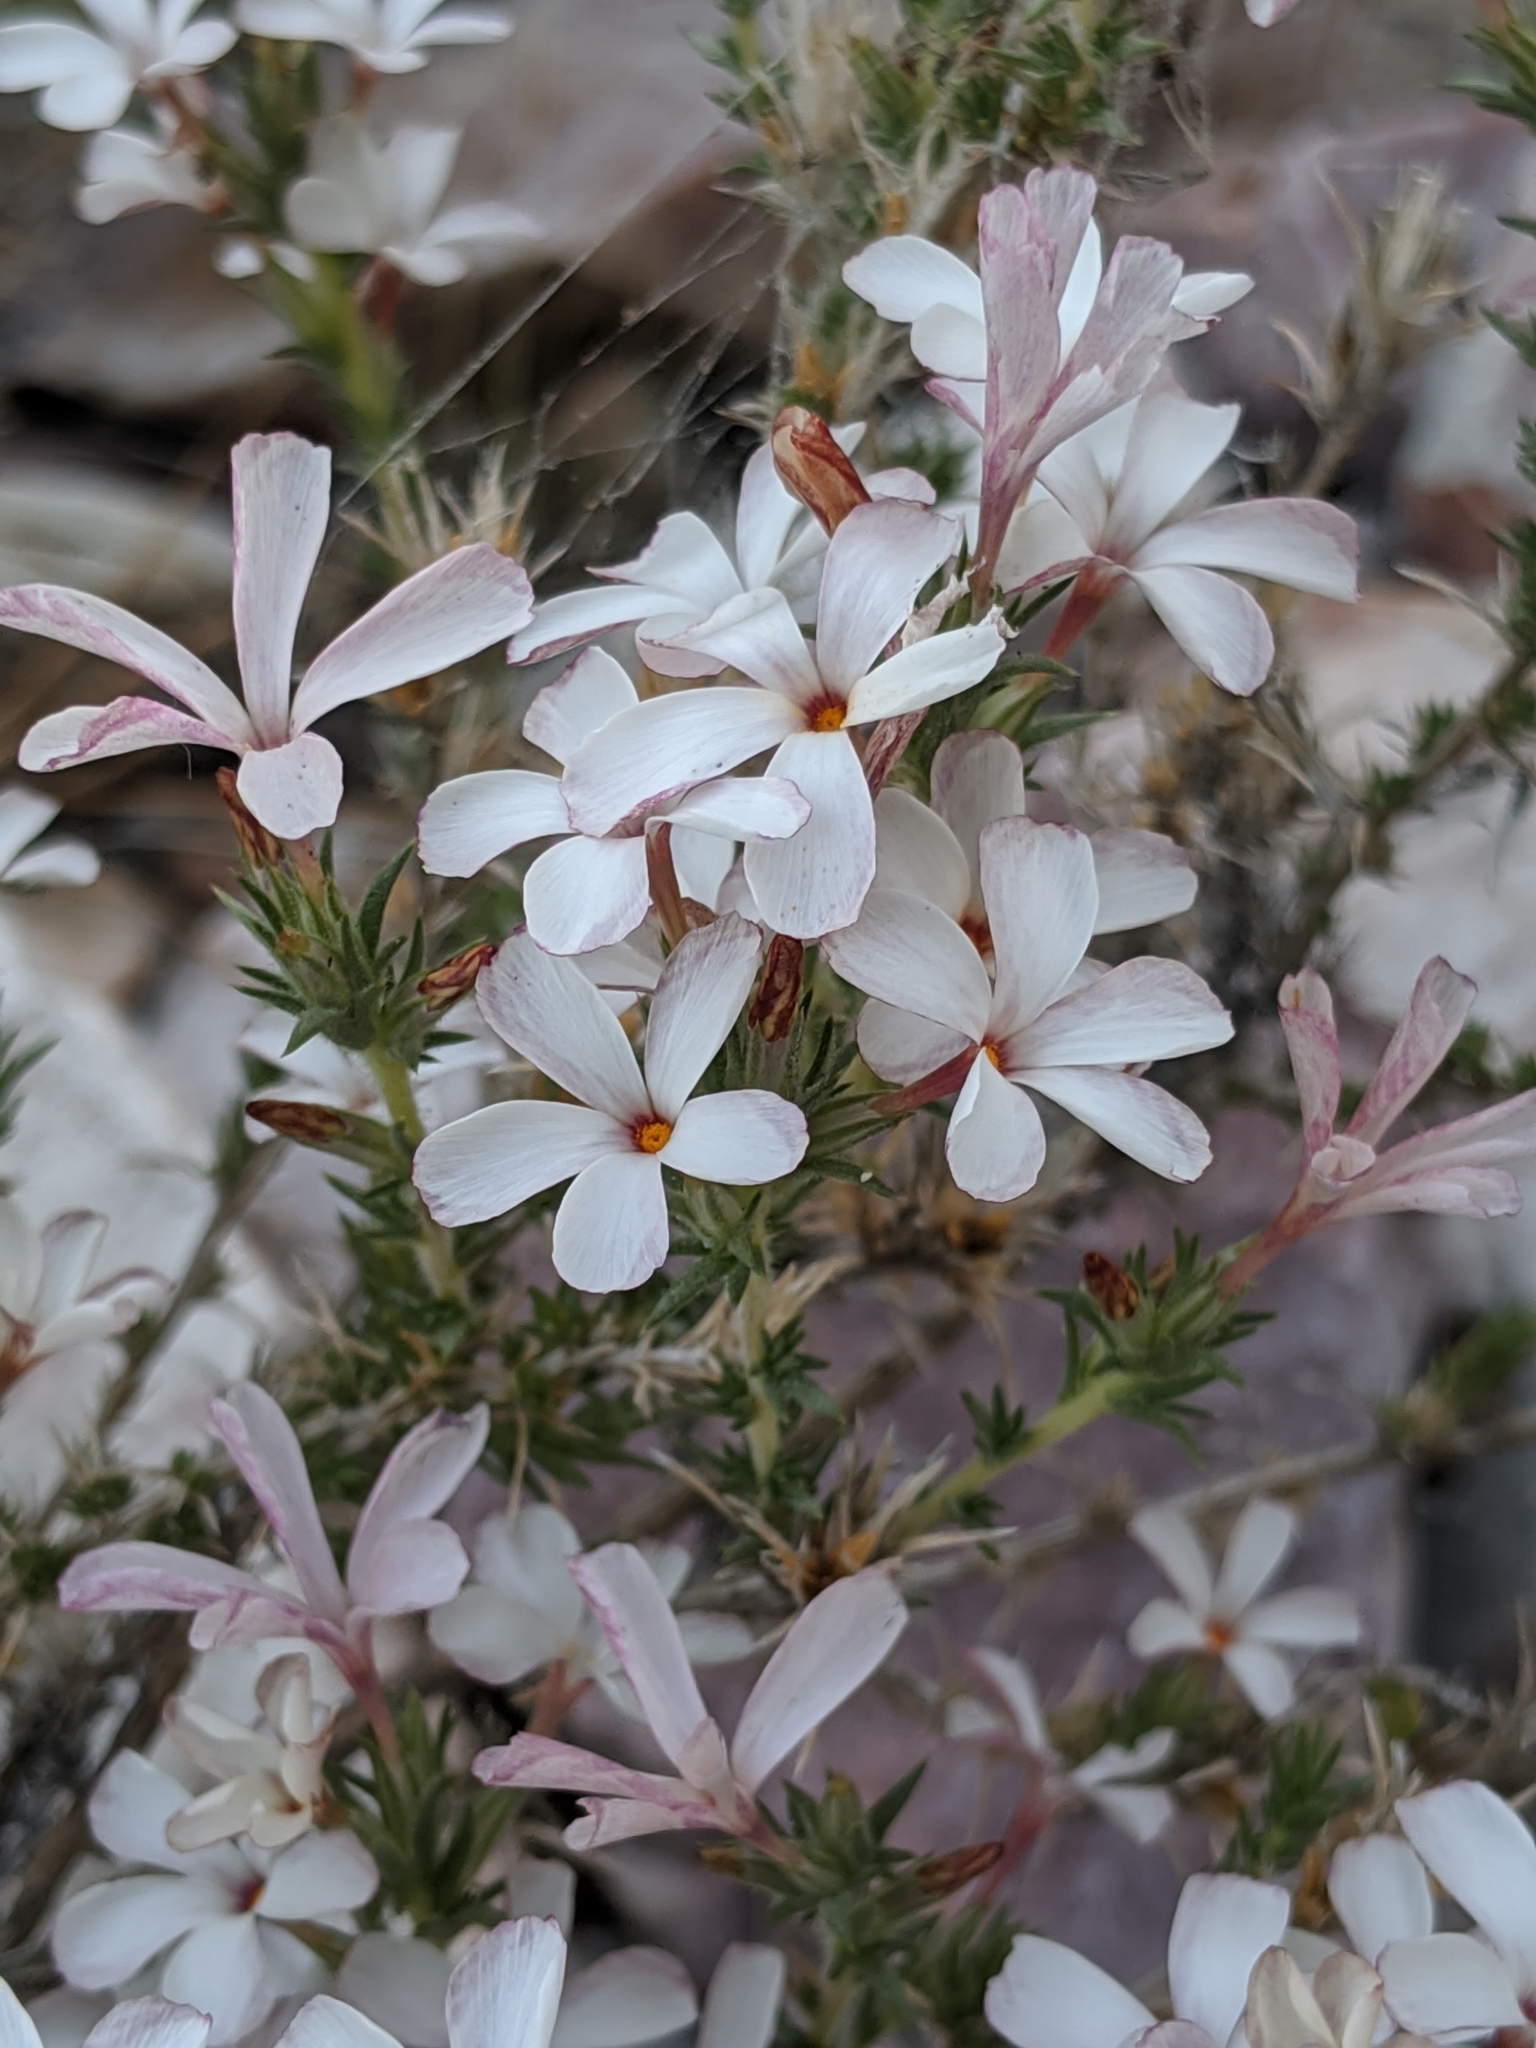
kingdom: Plantae
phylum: Tracheophyta
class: Magnoliopsida
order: Ericales
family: Polemoniaceae
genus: Linanthus
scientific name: Linanthus pungens
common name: Granite prickly phlox
